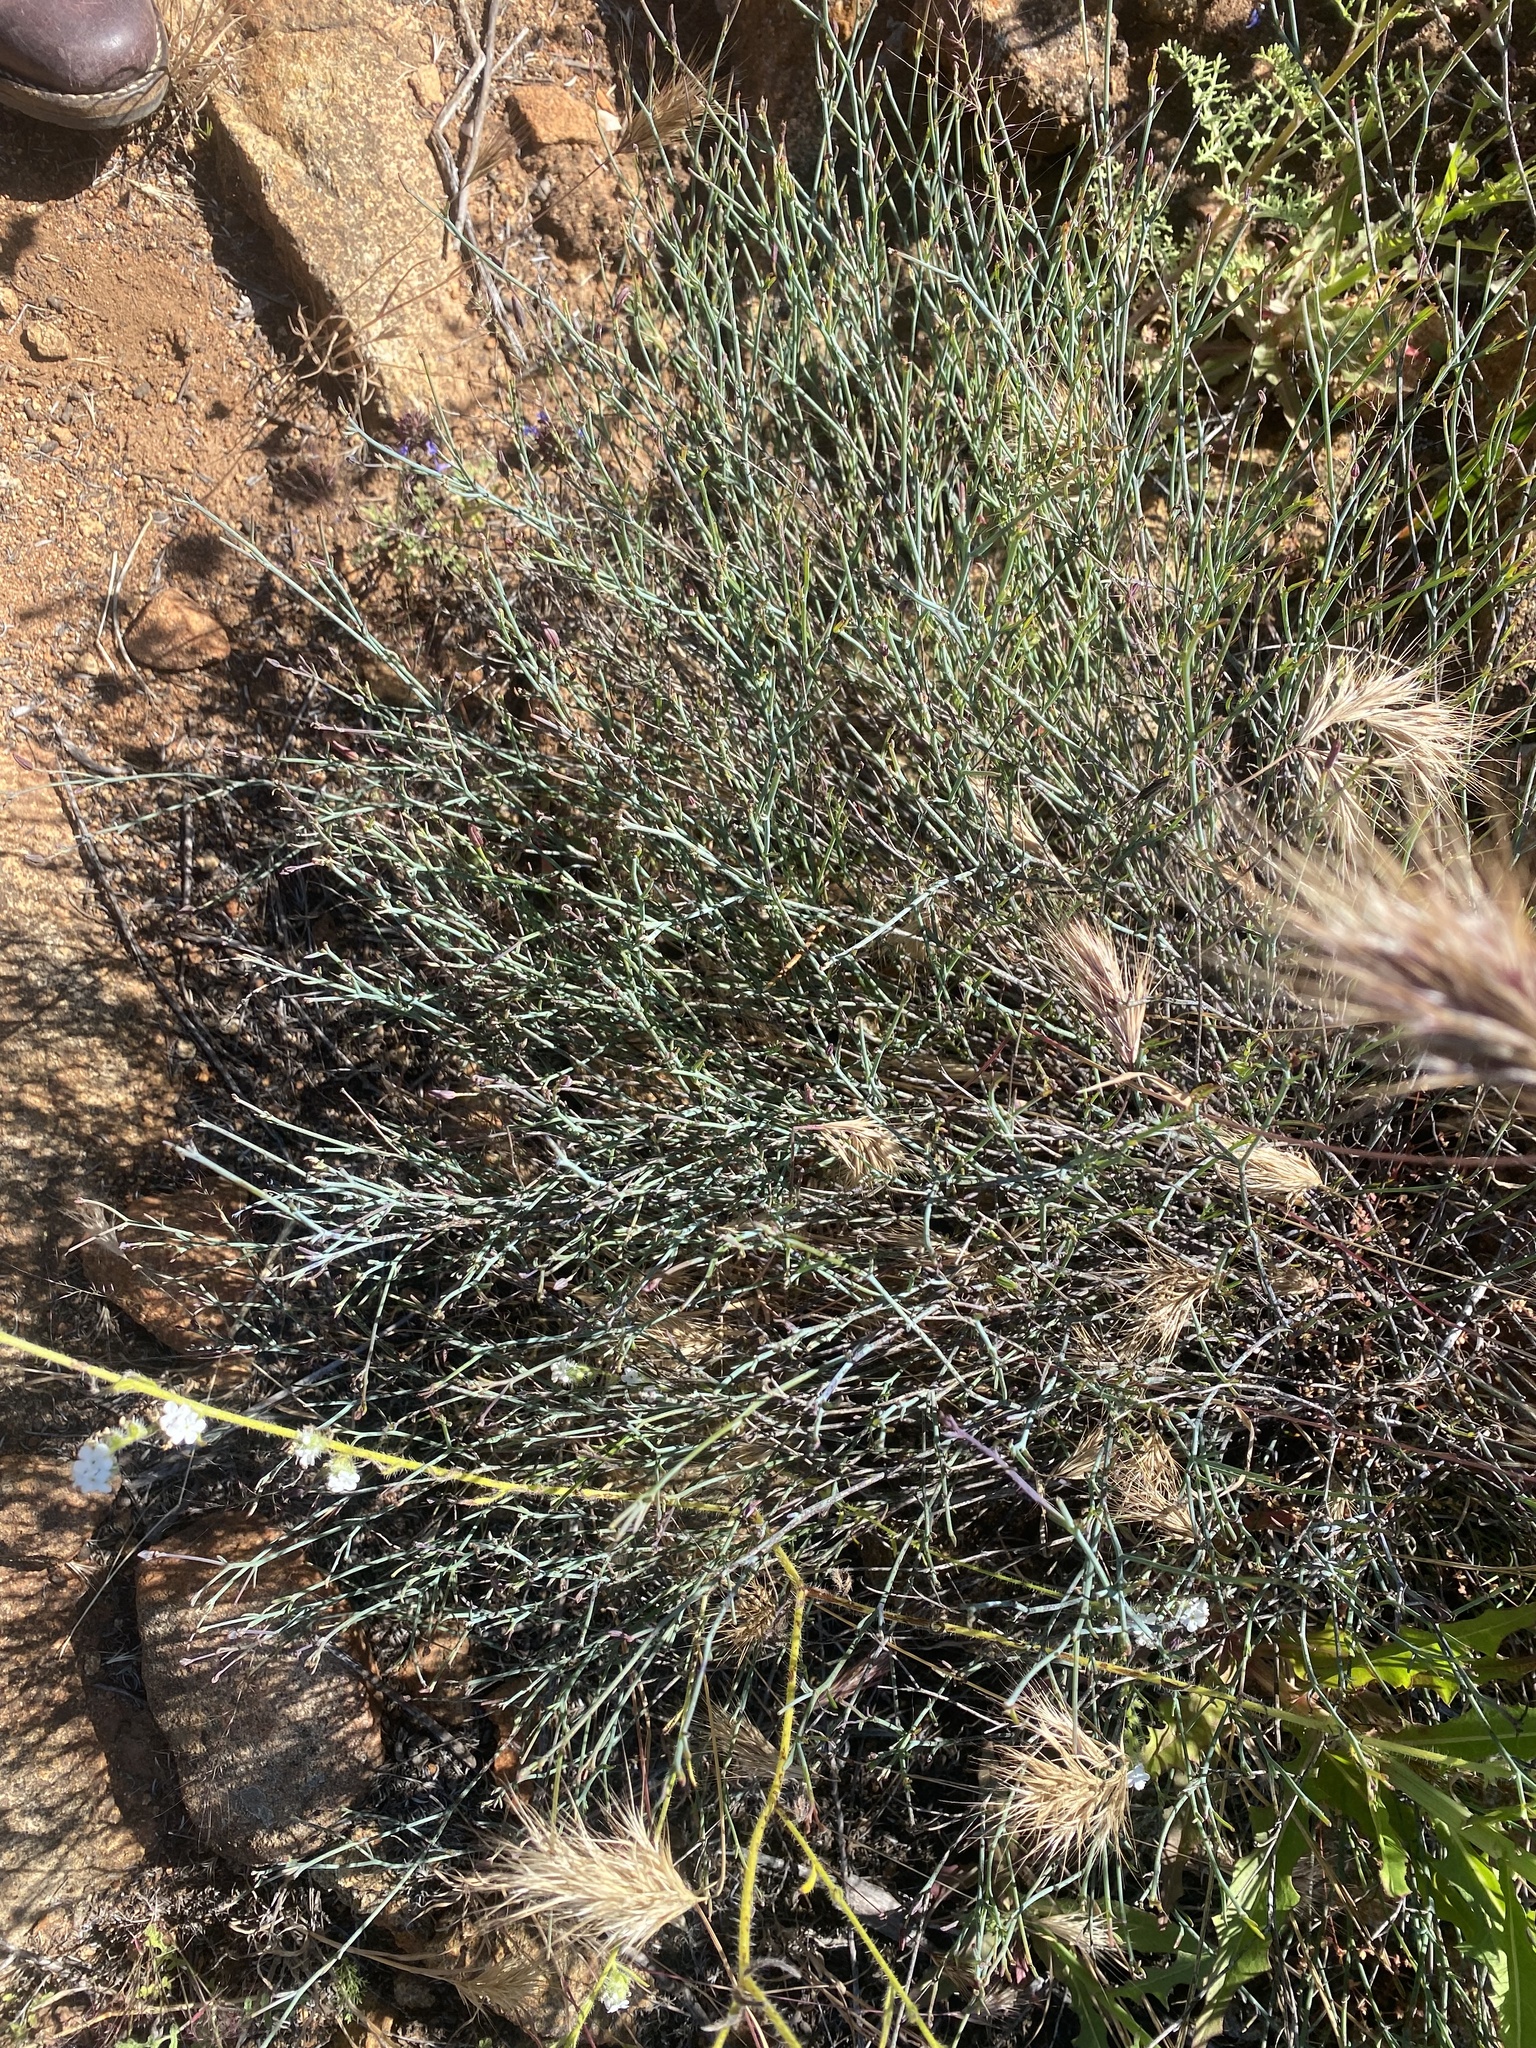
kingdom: Plantae
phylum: Tracheophyta
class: Magnoliopsida
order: Asterales
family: Asteraceae
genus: Porophyllum
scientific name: Porophyllum gracile
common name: Odora
